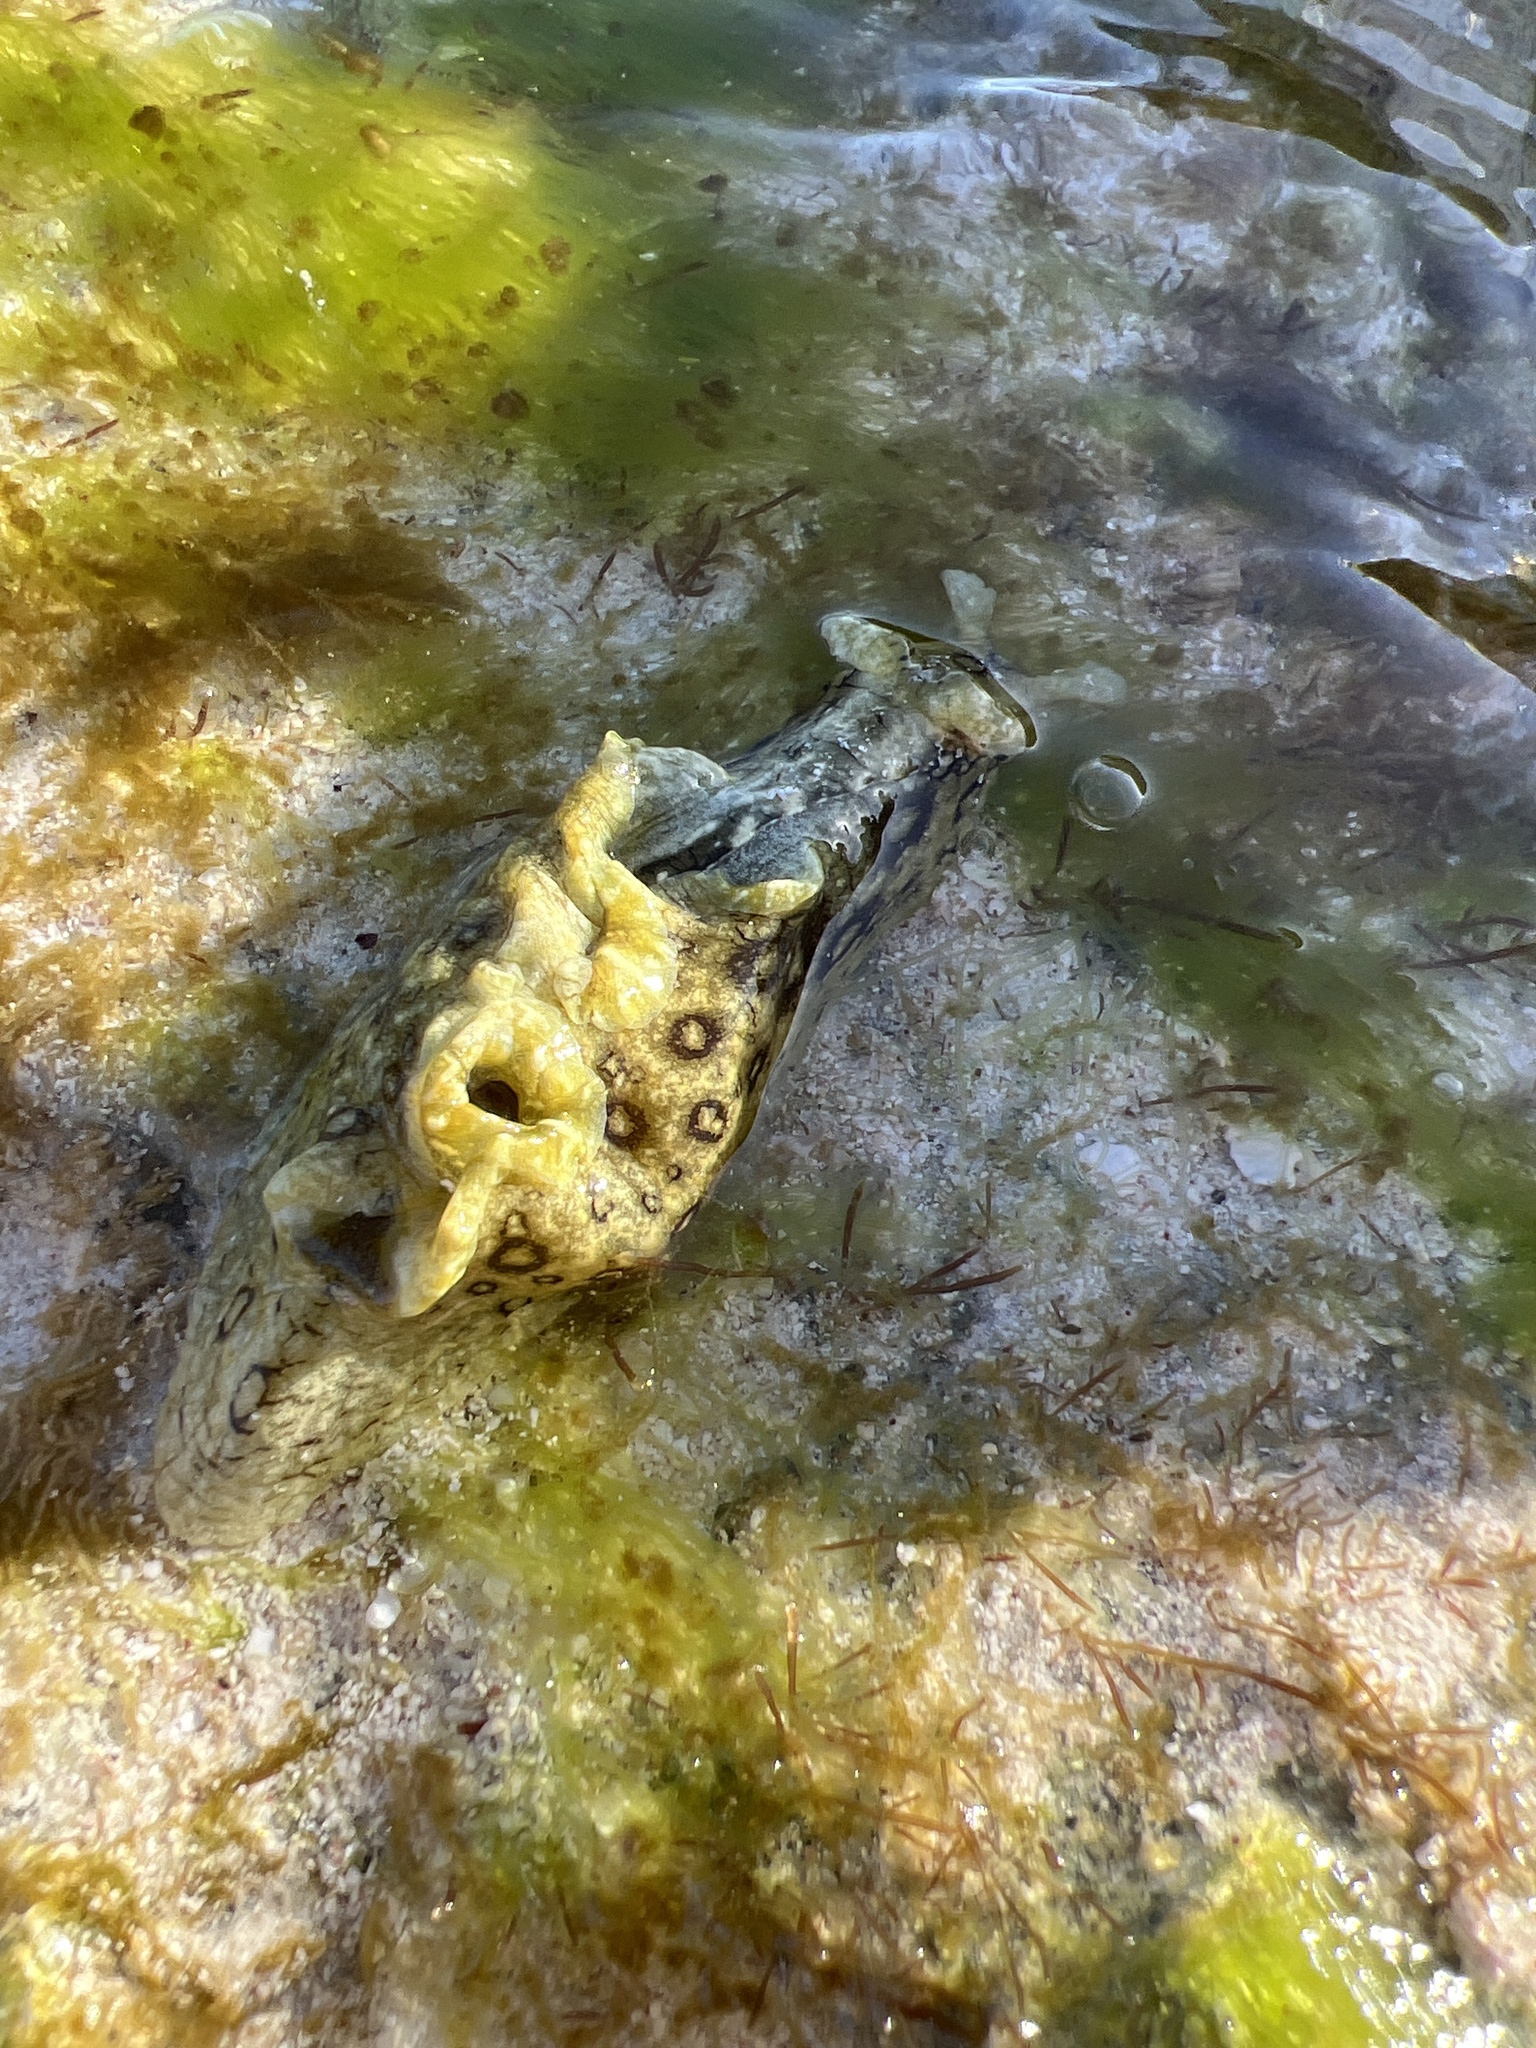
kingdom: Animalia
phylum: Mollusca
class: Gastropoda
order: Aplysiida
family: Aplysiidae
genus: Aplysia
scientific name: Aplysia dactylomela
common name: Large-spotted sea hare
